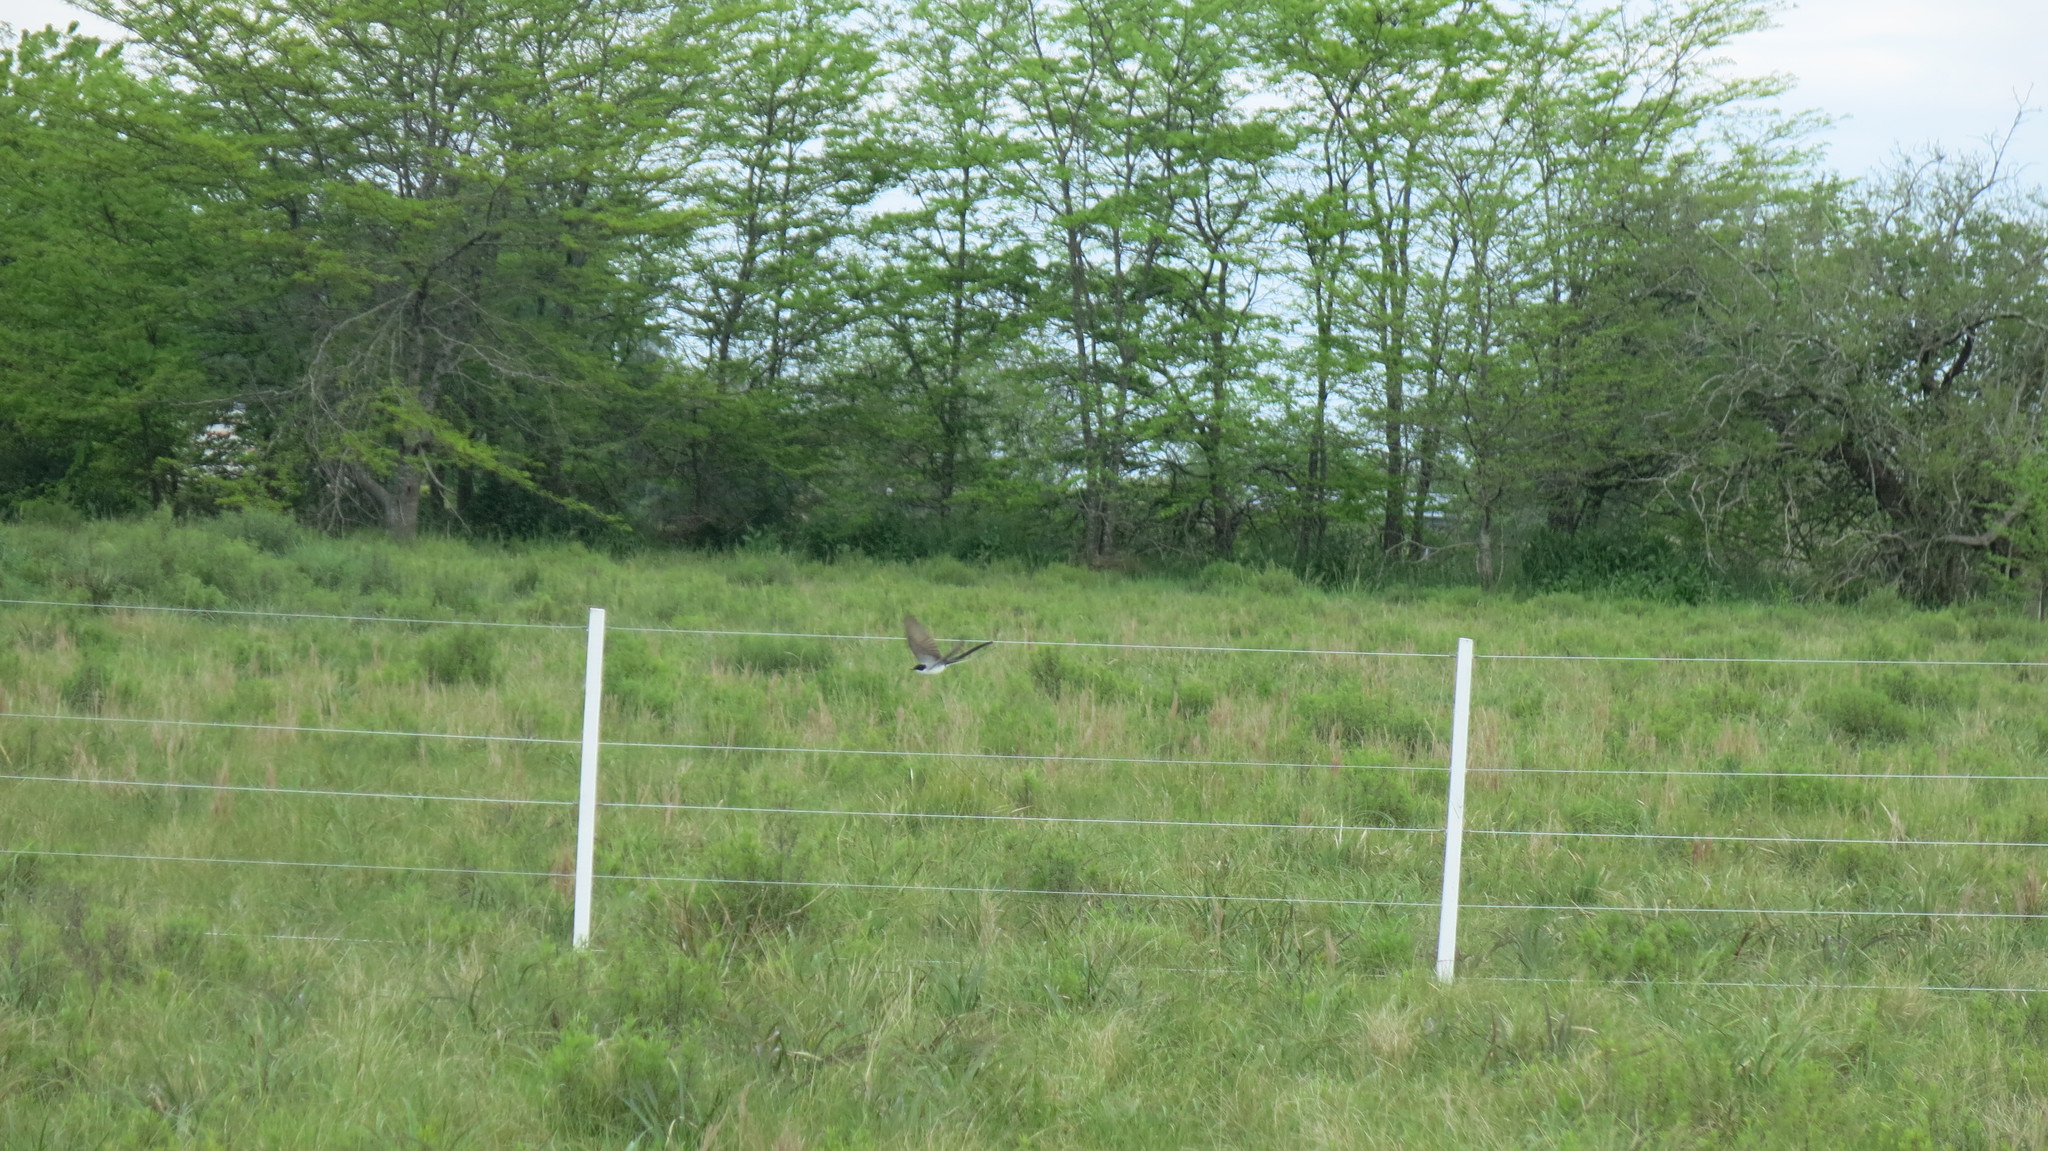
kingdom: Animalia
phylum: Chordata
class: Aves
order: Passeriformes
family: Tyrannidae
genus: Tyrannus
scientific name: Tyrannus savana
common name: Fork-tailed flycatcher
